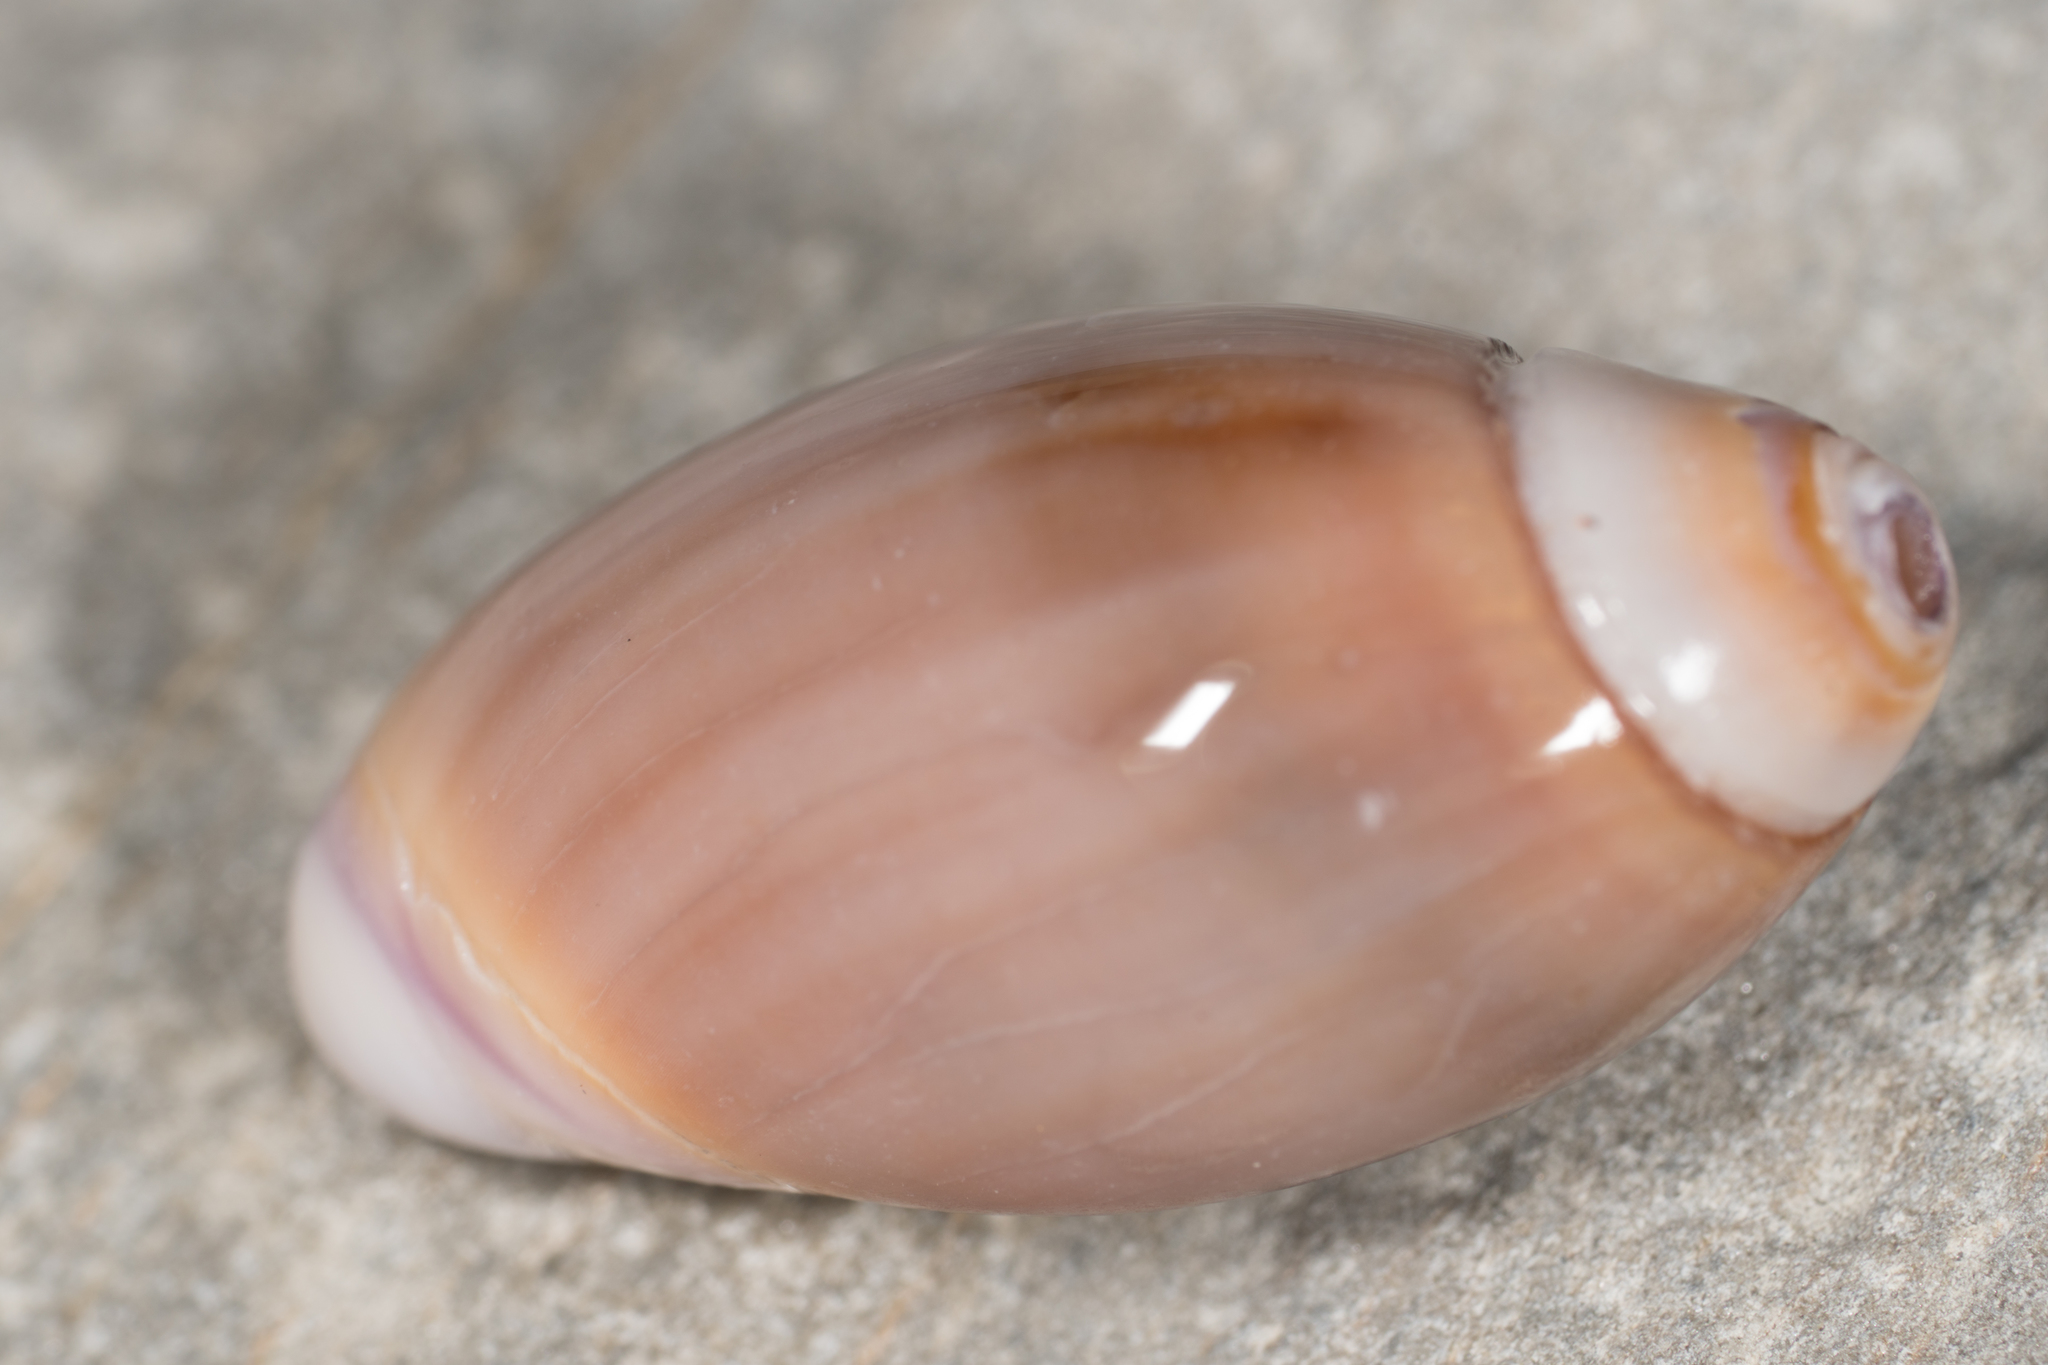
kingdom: Animalia
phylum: Mollusca
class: Gastropoda
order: Neogastropoda
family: Olividae
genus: Callianax
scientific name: Callianax biplicata
